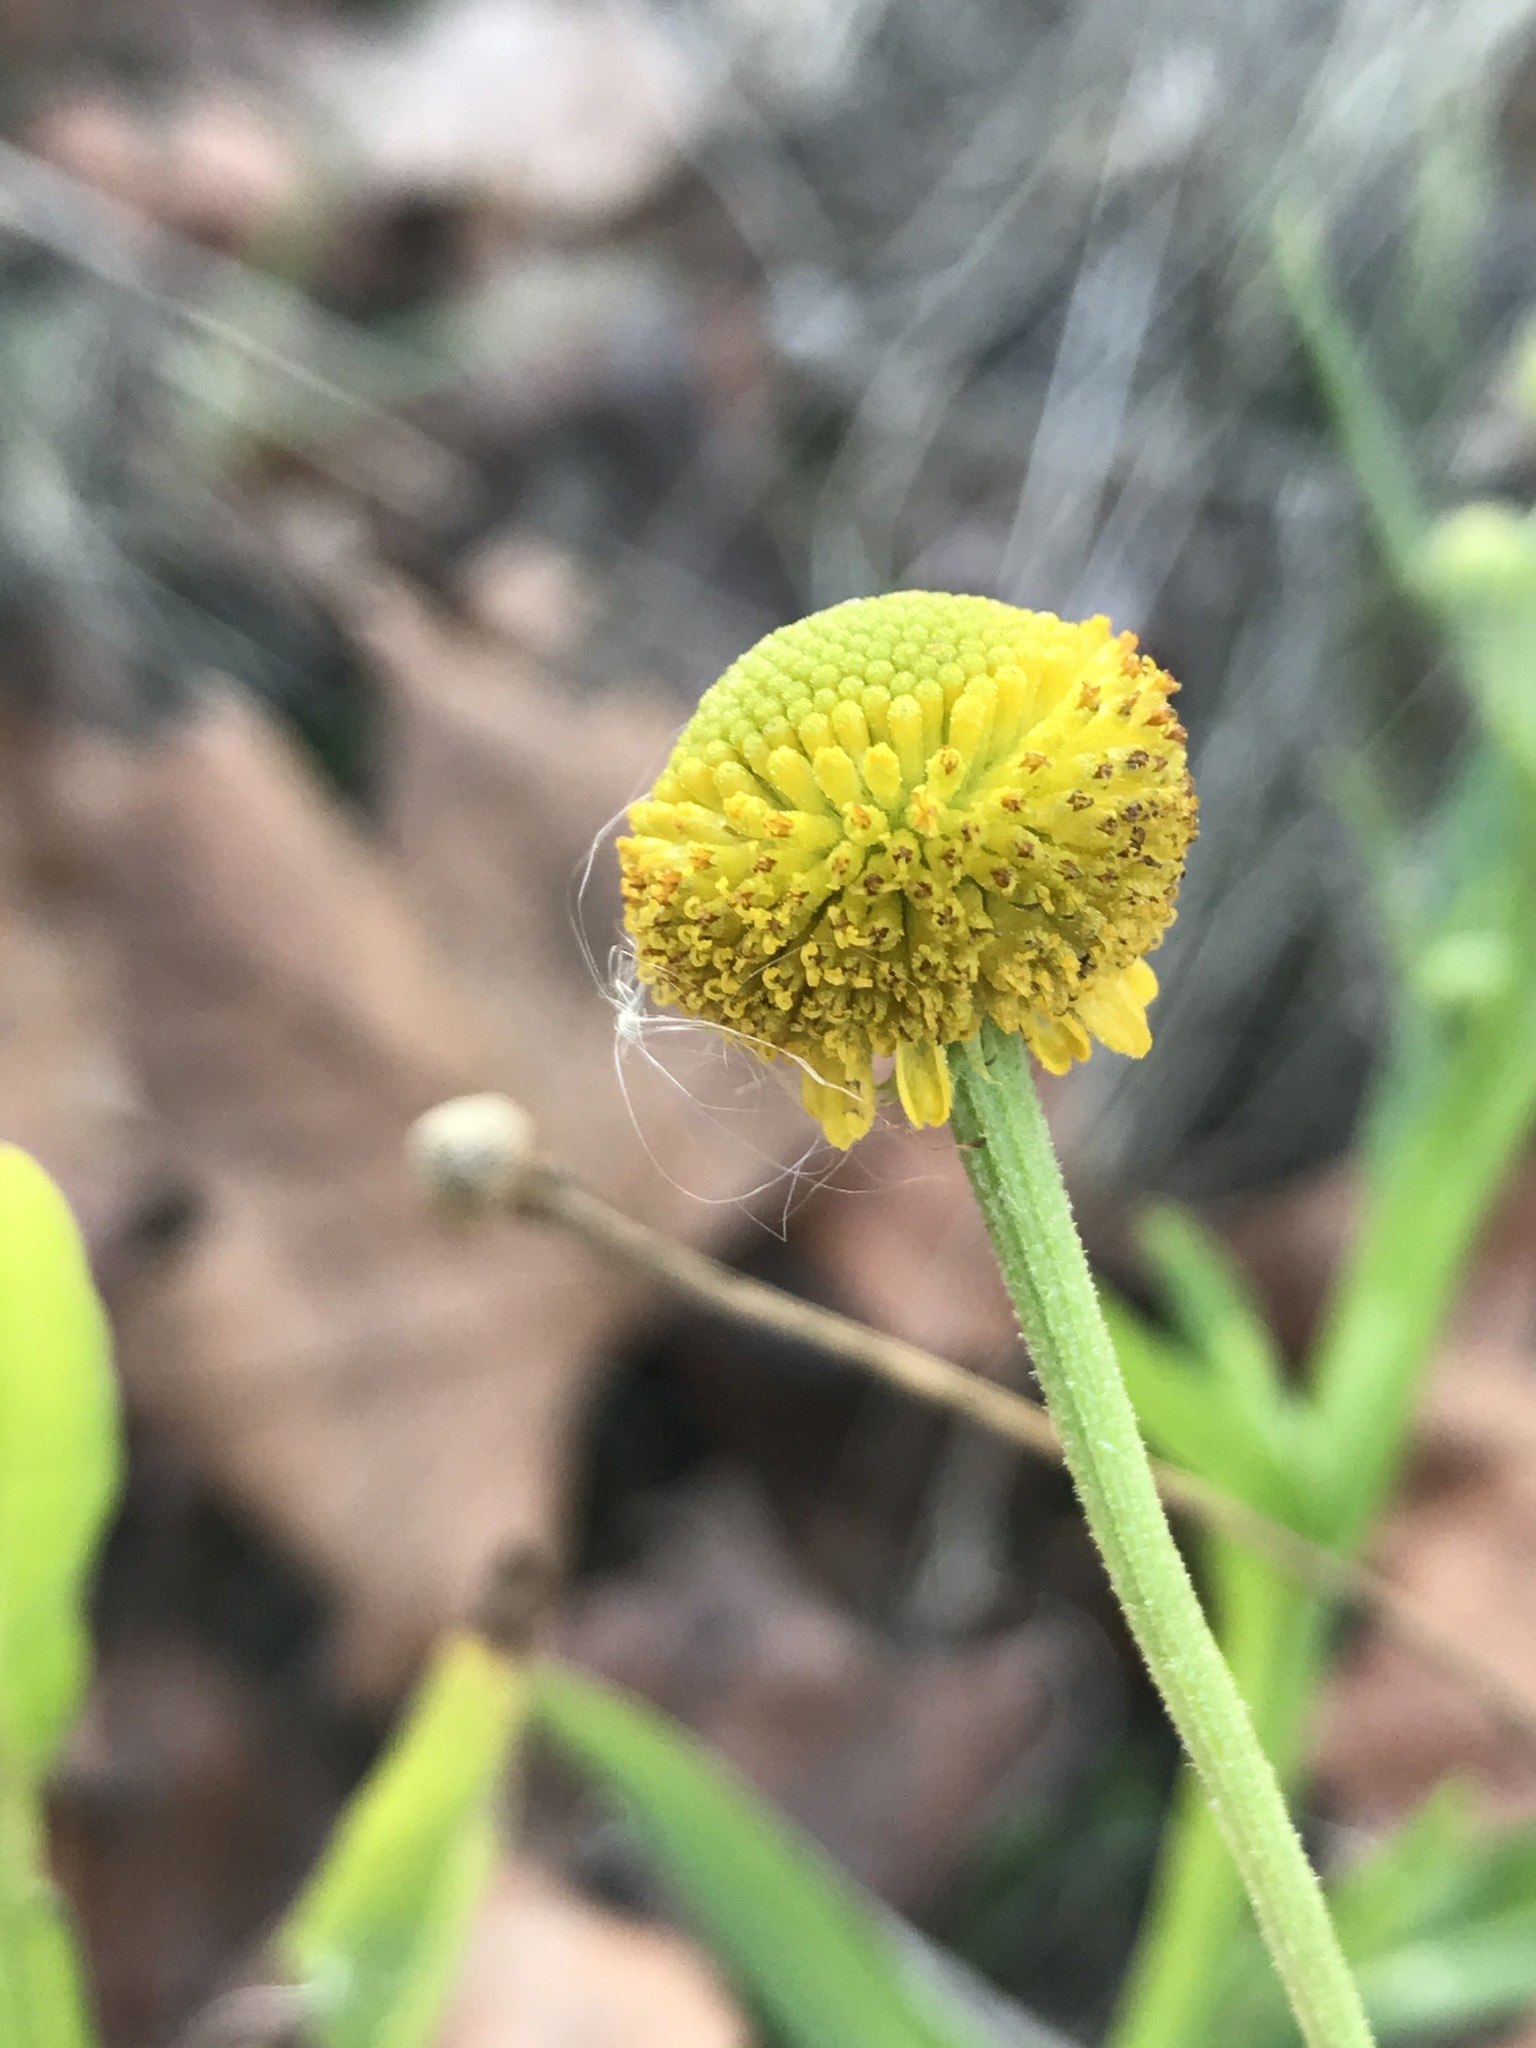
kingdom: Plantae
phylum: Tracheophyta
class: Magnoliopsida
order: Asterales
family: Asteraceae
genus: Helenium
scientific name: Helenium puberulum
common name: Sneezewort
